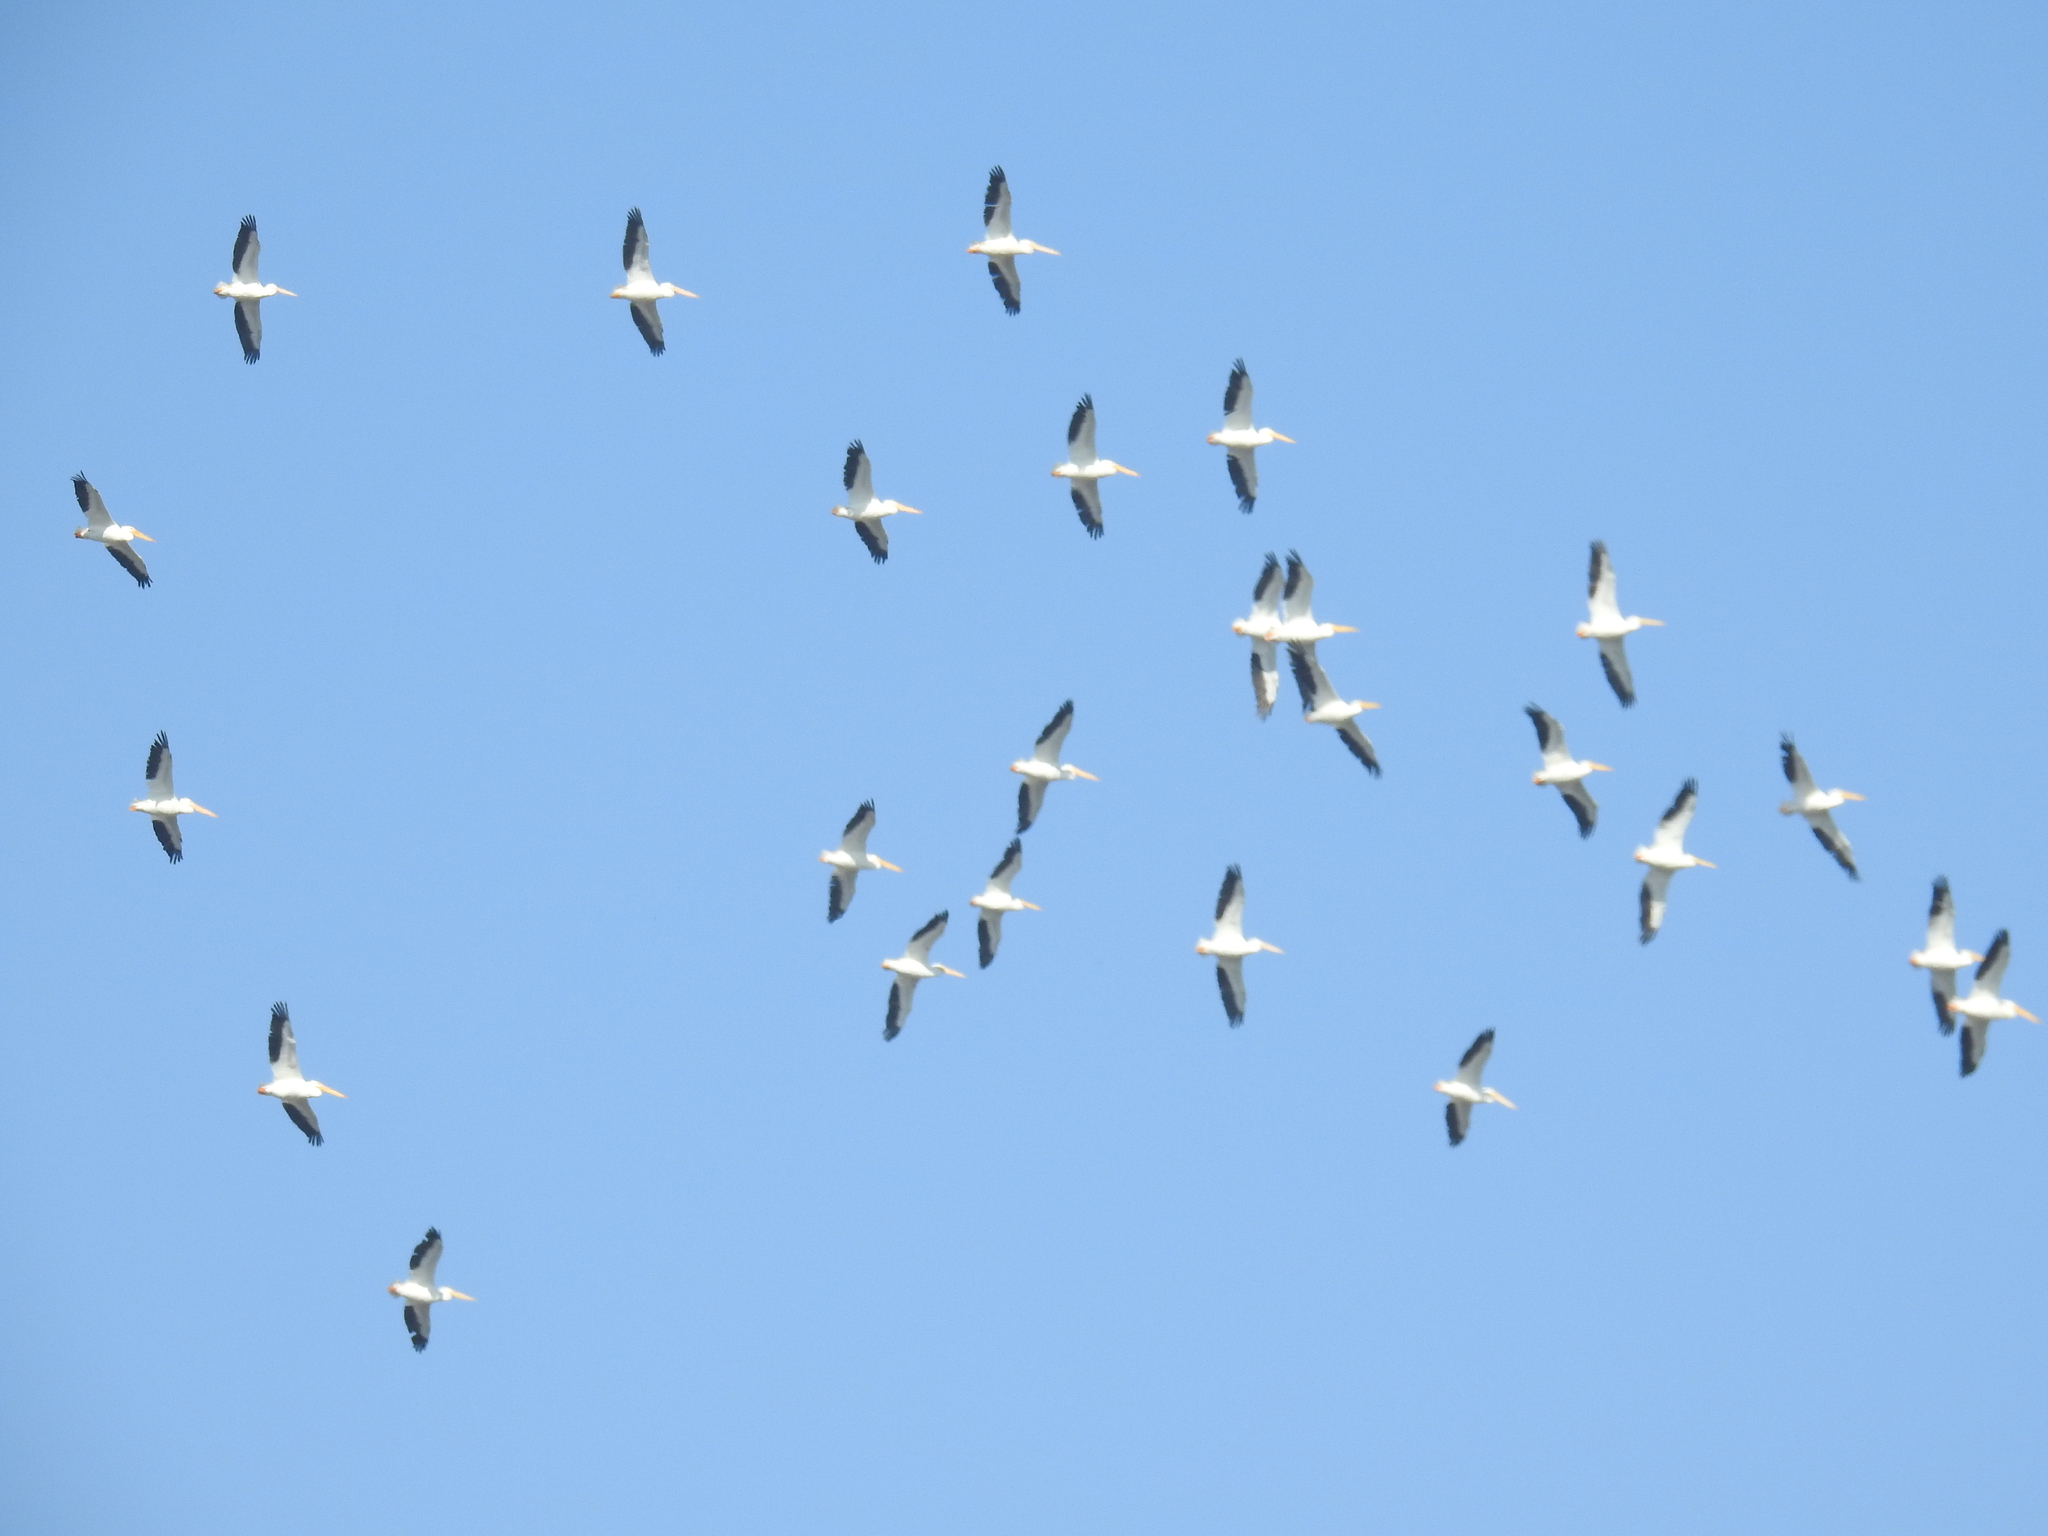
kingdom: Animalia
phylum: Chordata
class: Aves
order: Pelecaniformes
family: Pelecanidae
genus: Pelecanus
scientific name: Pelecanus erythrorhynchos
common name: American white pelican
